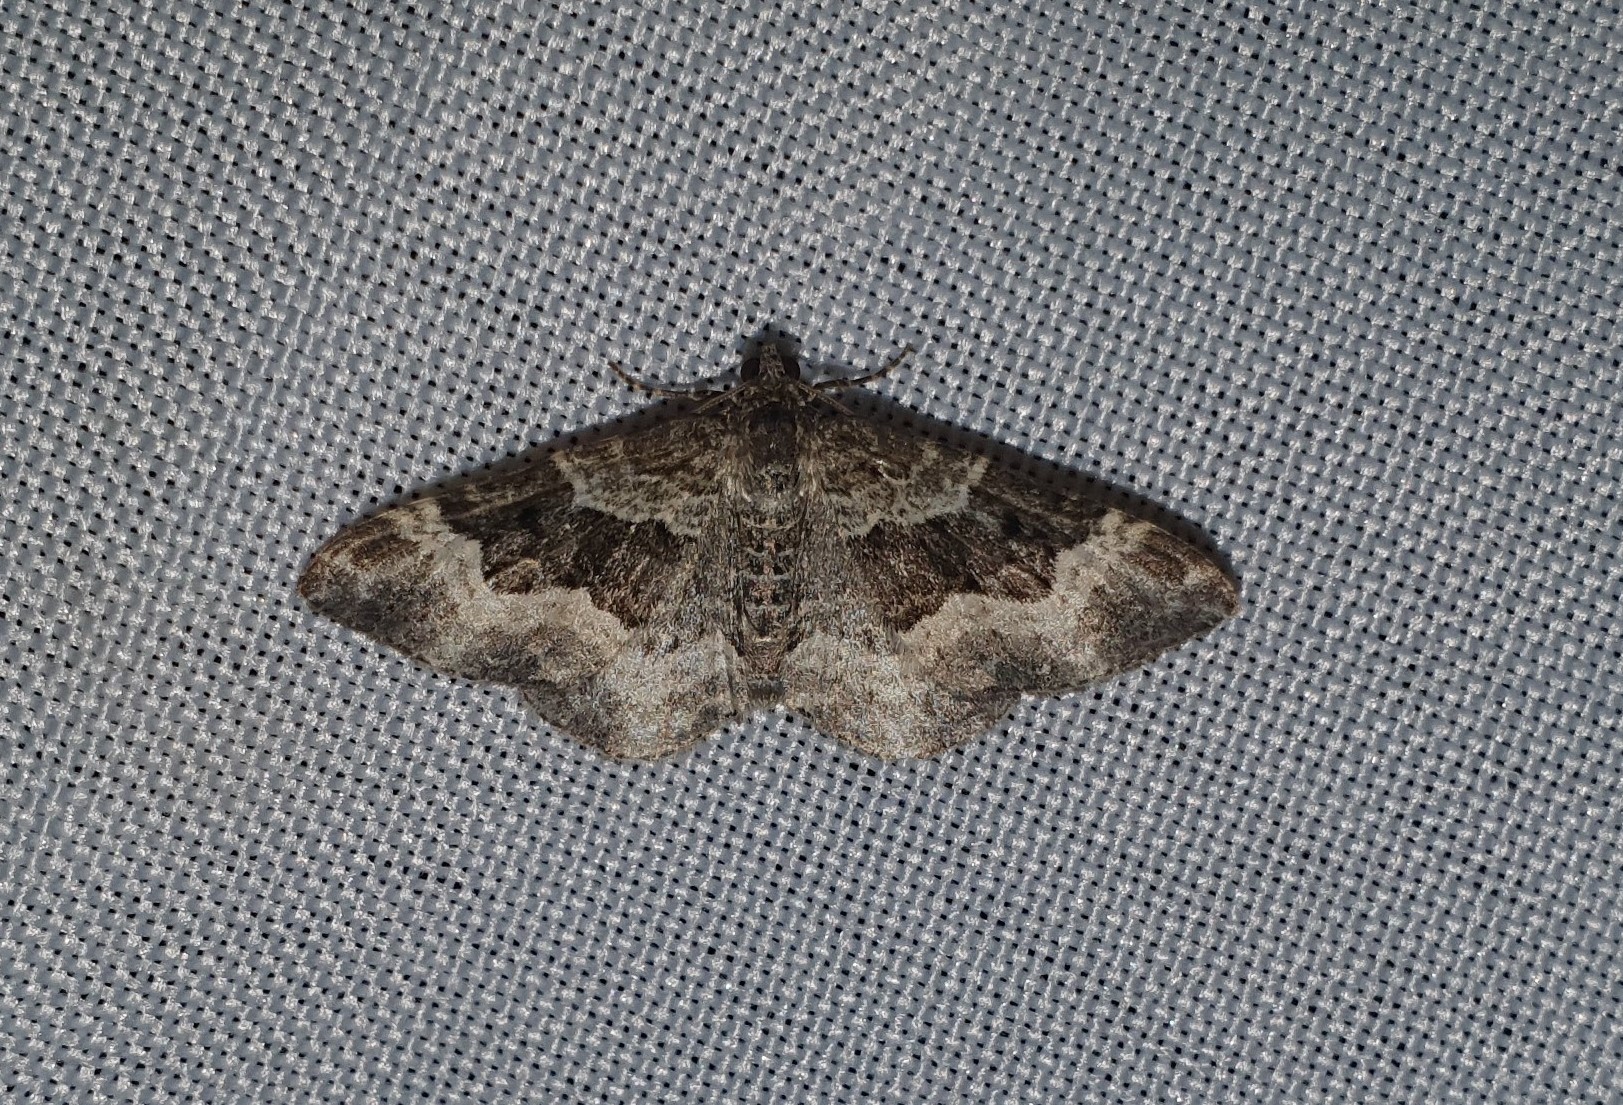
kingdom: Animalia
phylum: Arthropoda
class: Insecta
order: Lepidoptera
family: Geometridae
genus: Epirrhoe
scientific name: Epirrhoe alternata
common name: Common carpet
